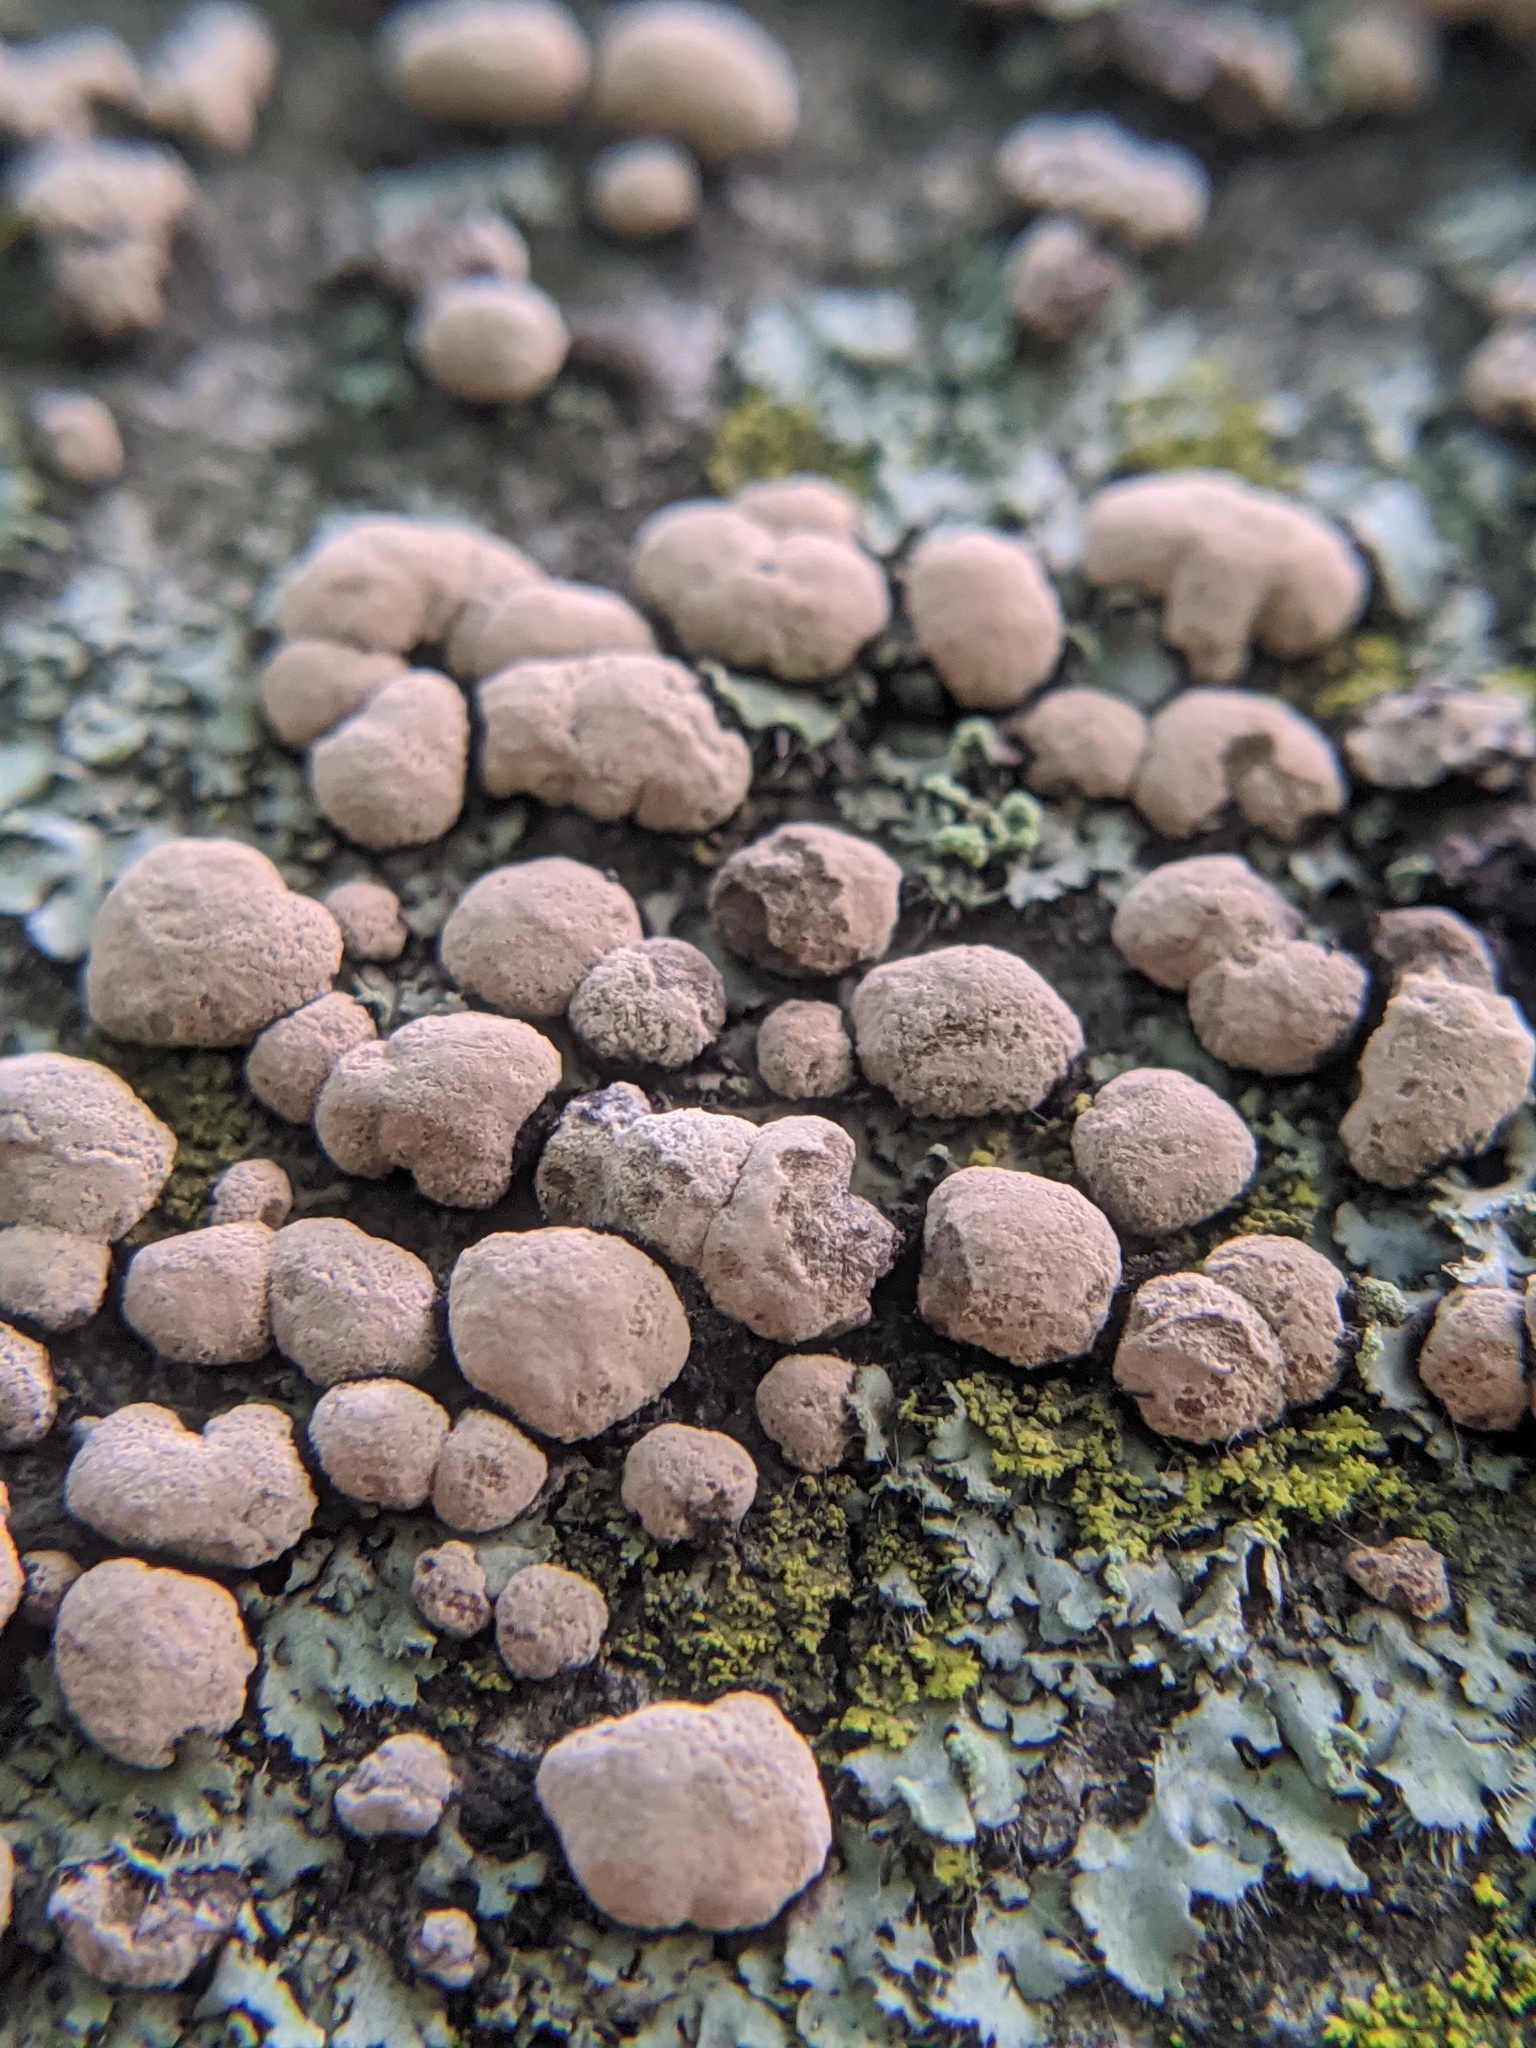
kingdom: Fungi
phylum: Basidiomycota
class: Agaricomycetes
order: Russulales
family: Stereaceae
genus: Xylobolus
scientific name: Xylobolus frustulatus
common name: Ceramic parchment
